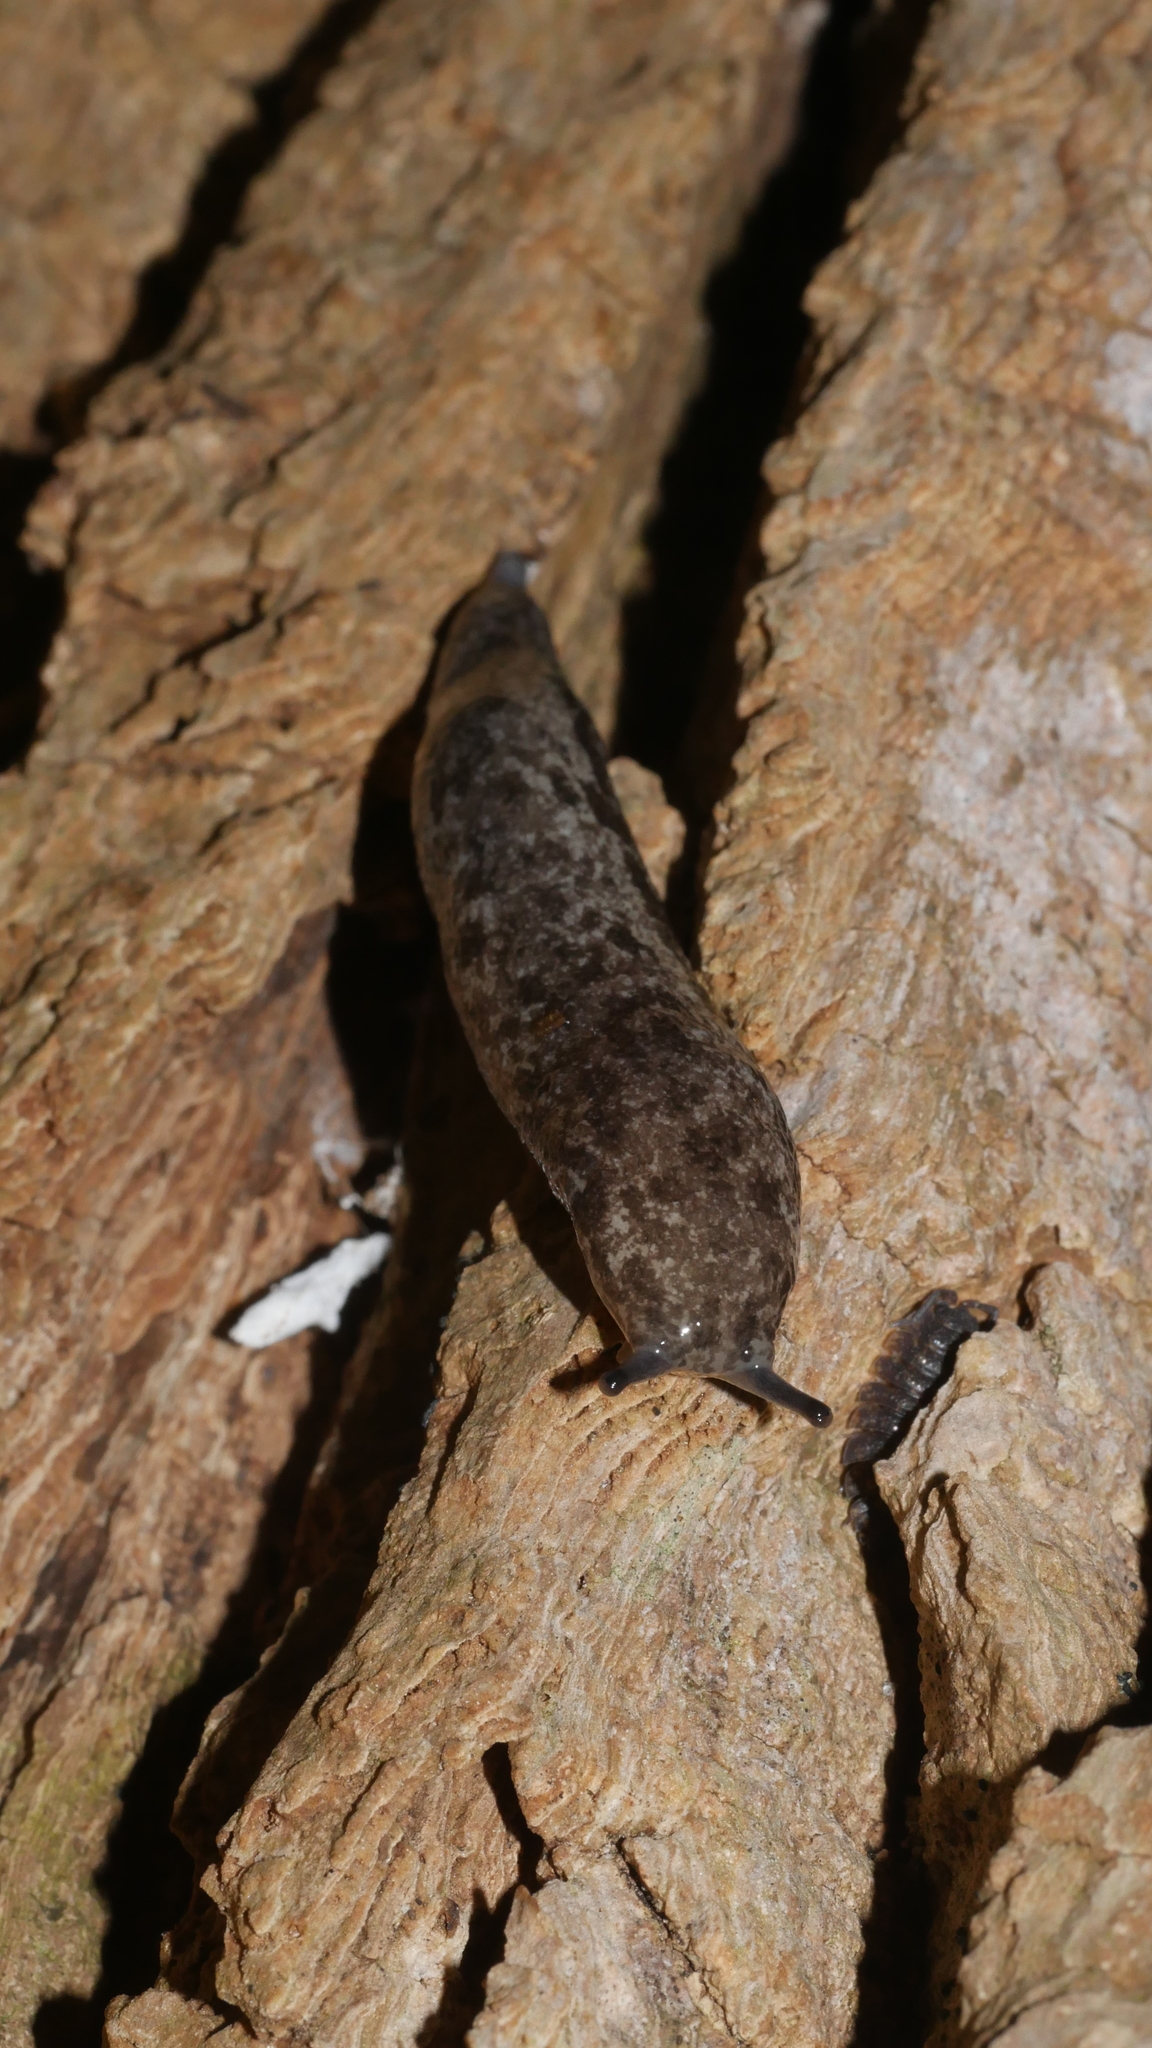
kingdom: Animalia
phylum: Mollusca
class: Gastropoda
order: Stylommatophora
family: Philomycidae
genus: Megapallifera
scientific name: Megapallifera mutabilis
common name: Changeable mantleslug
